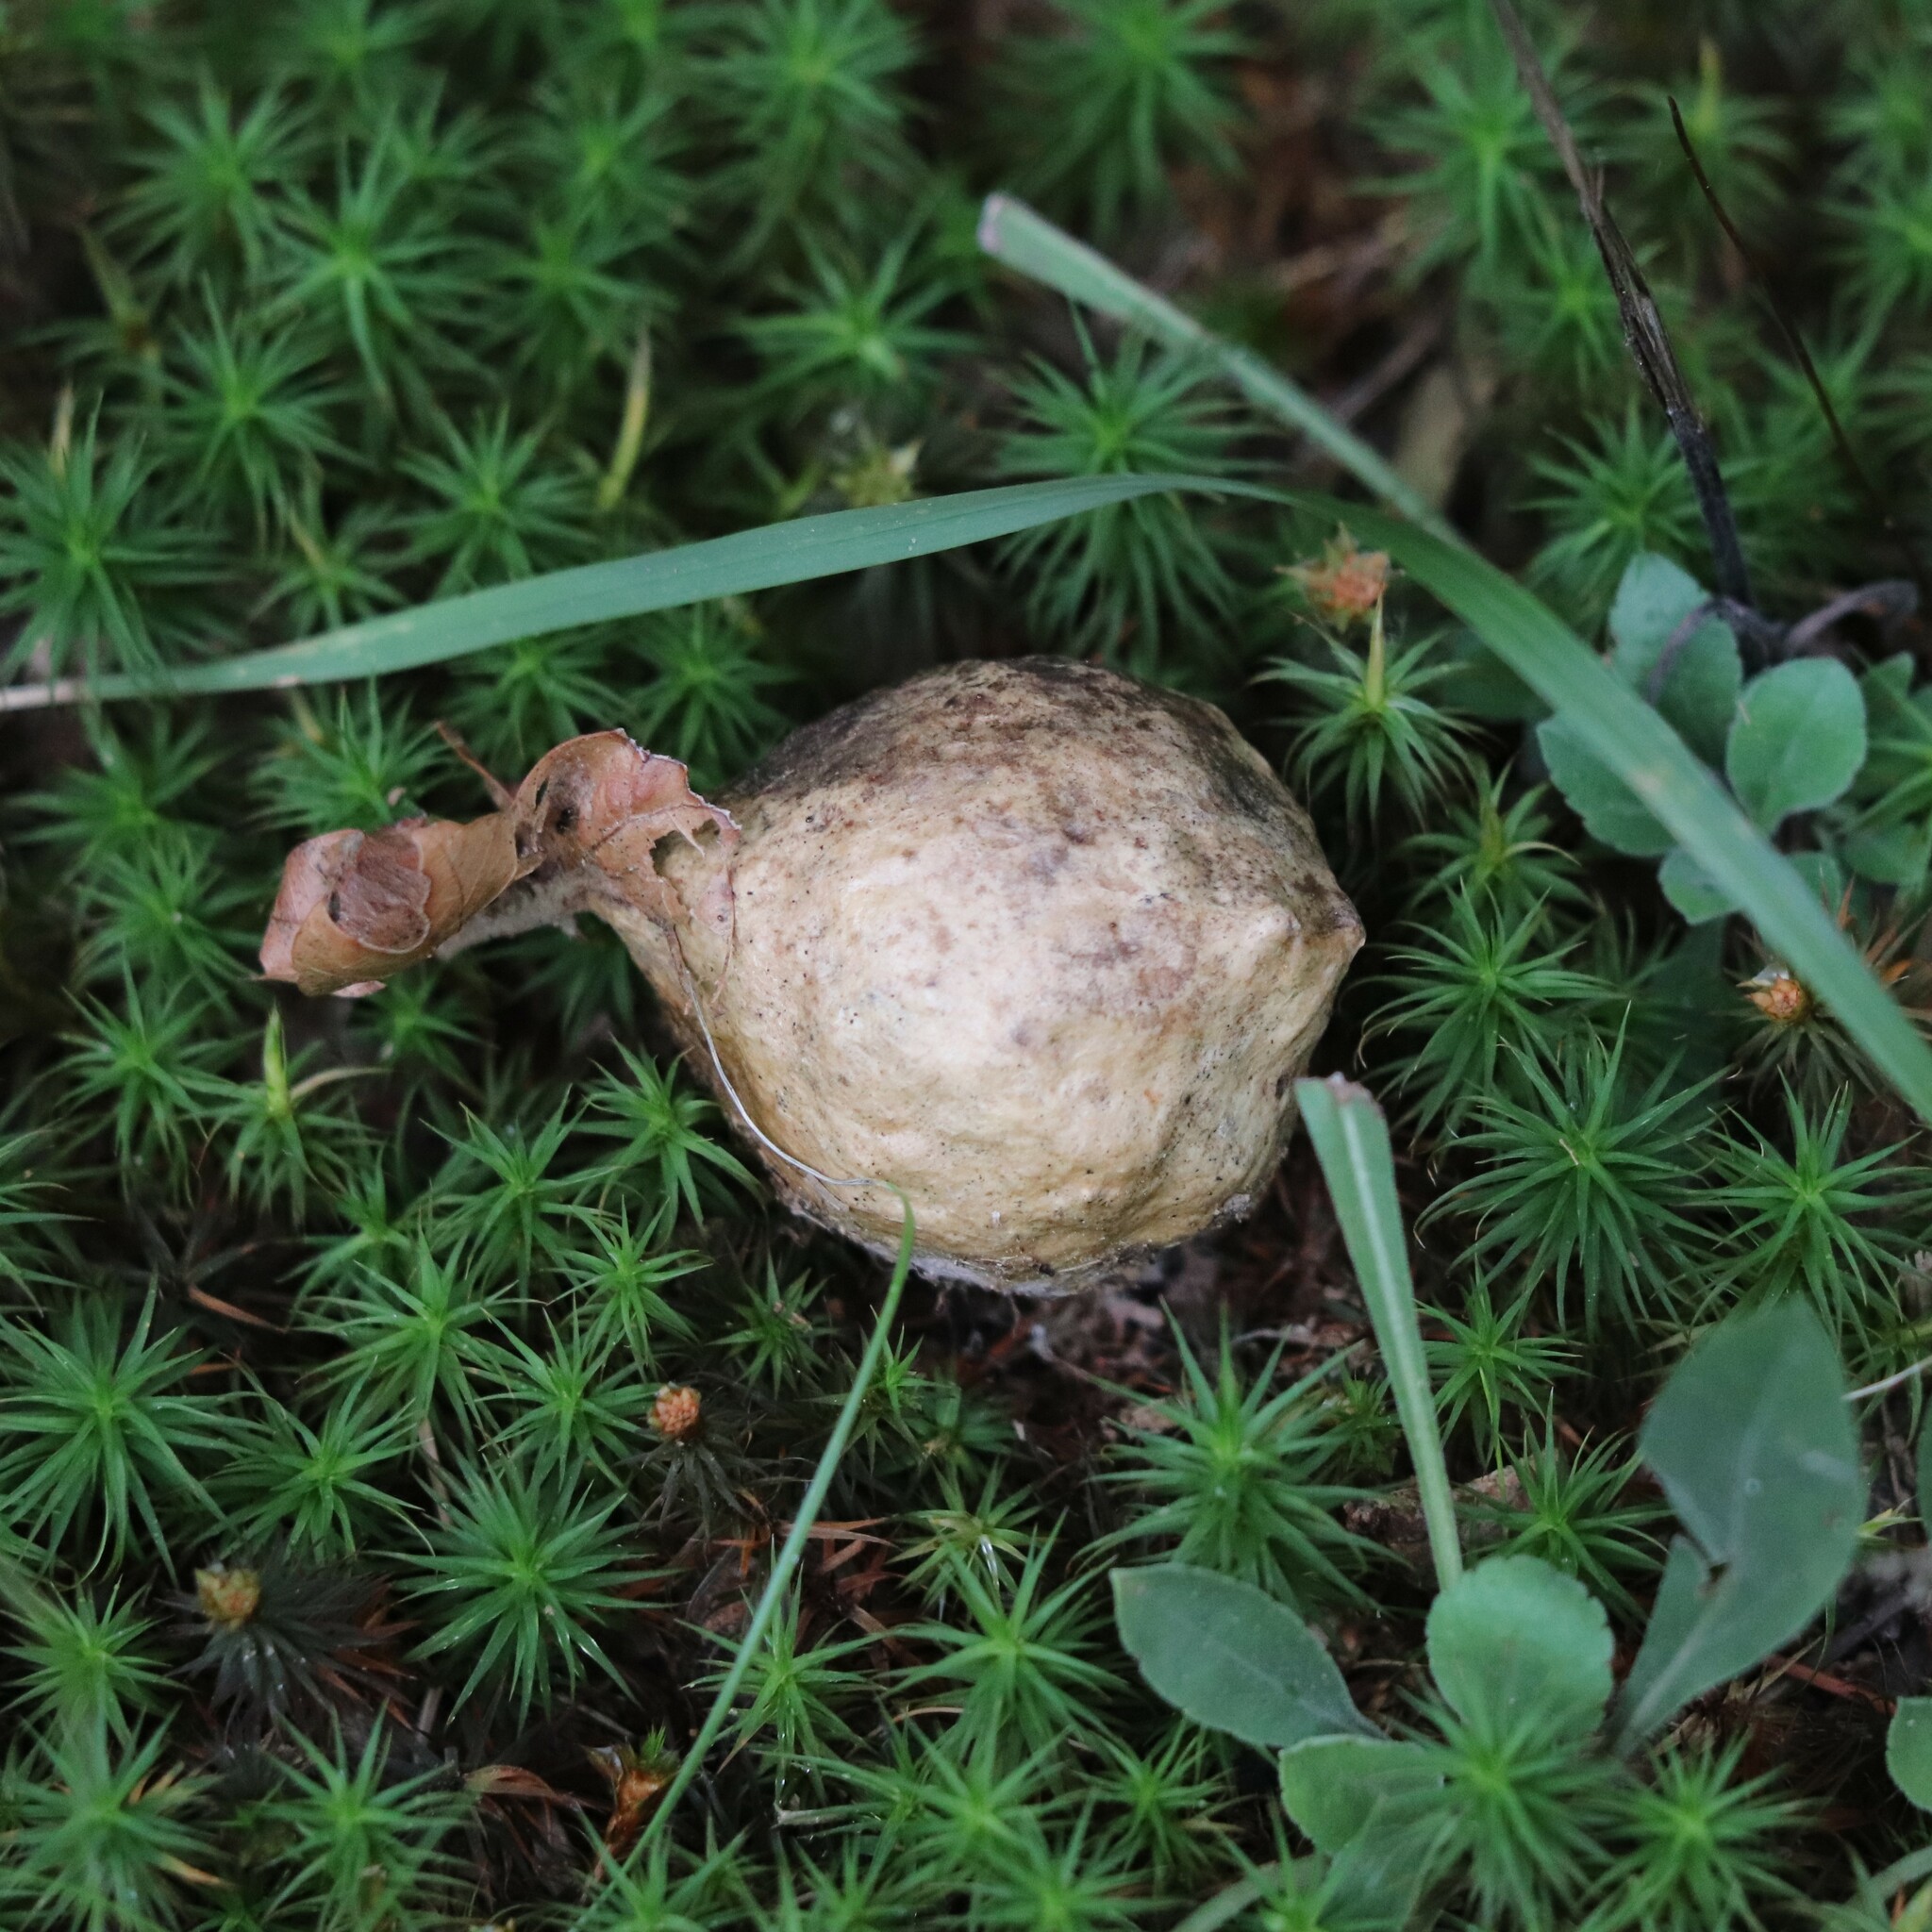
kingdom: Animalia
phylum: Arthropoda
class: Insecta
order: Hymenoptera
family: Cynipidae
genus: Amphibolips
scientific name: Amphibolips
